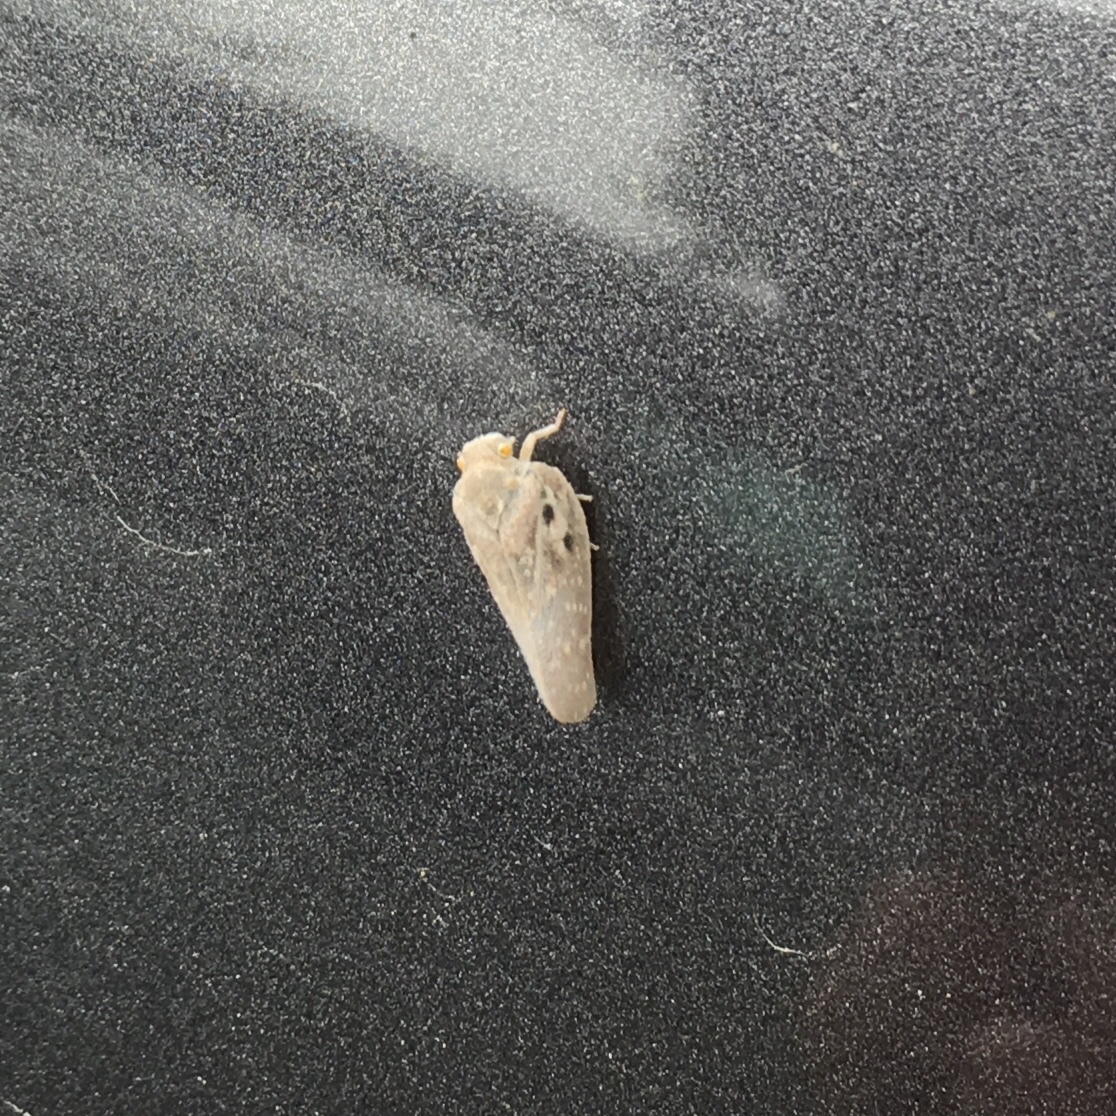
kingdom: Animalia
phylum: Arthropoda
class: Insecta
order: Hemiptera
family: Flatidae
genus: Metcalfa
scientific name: Metcalfa pruinosa
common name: Citrus flatid planthopper
